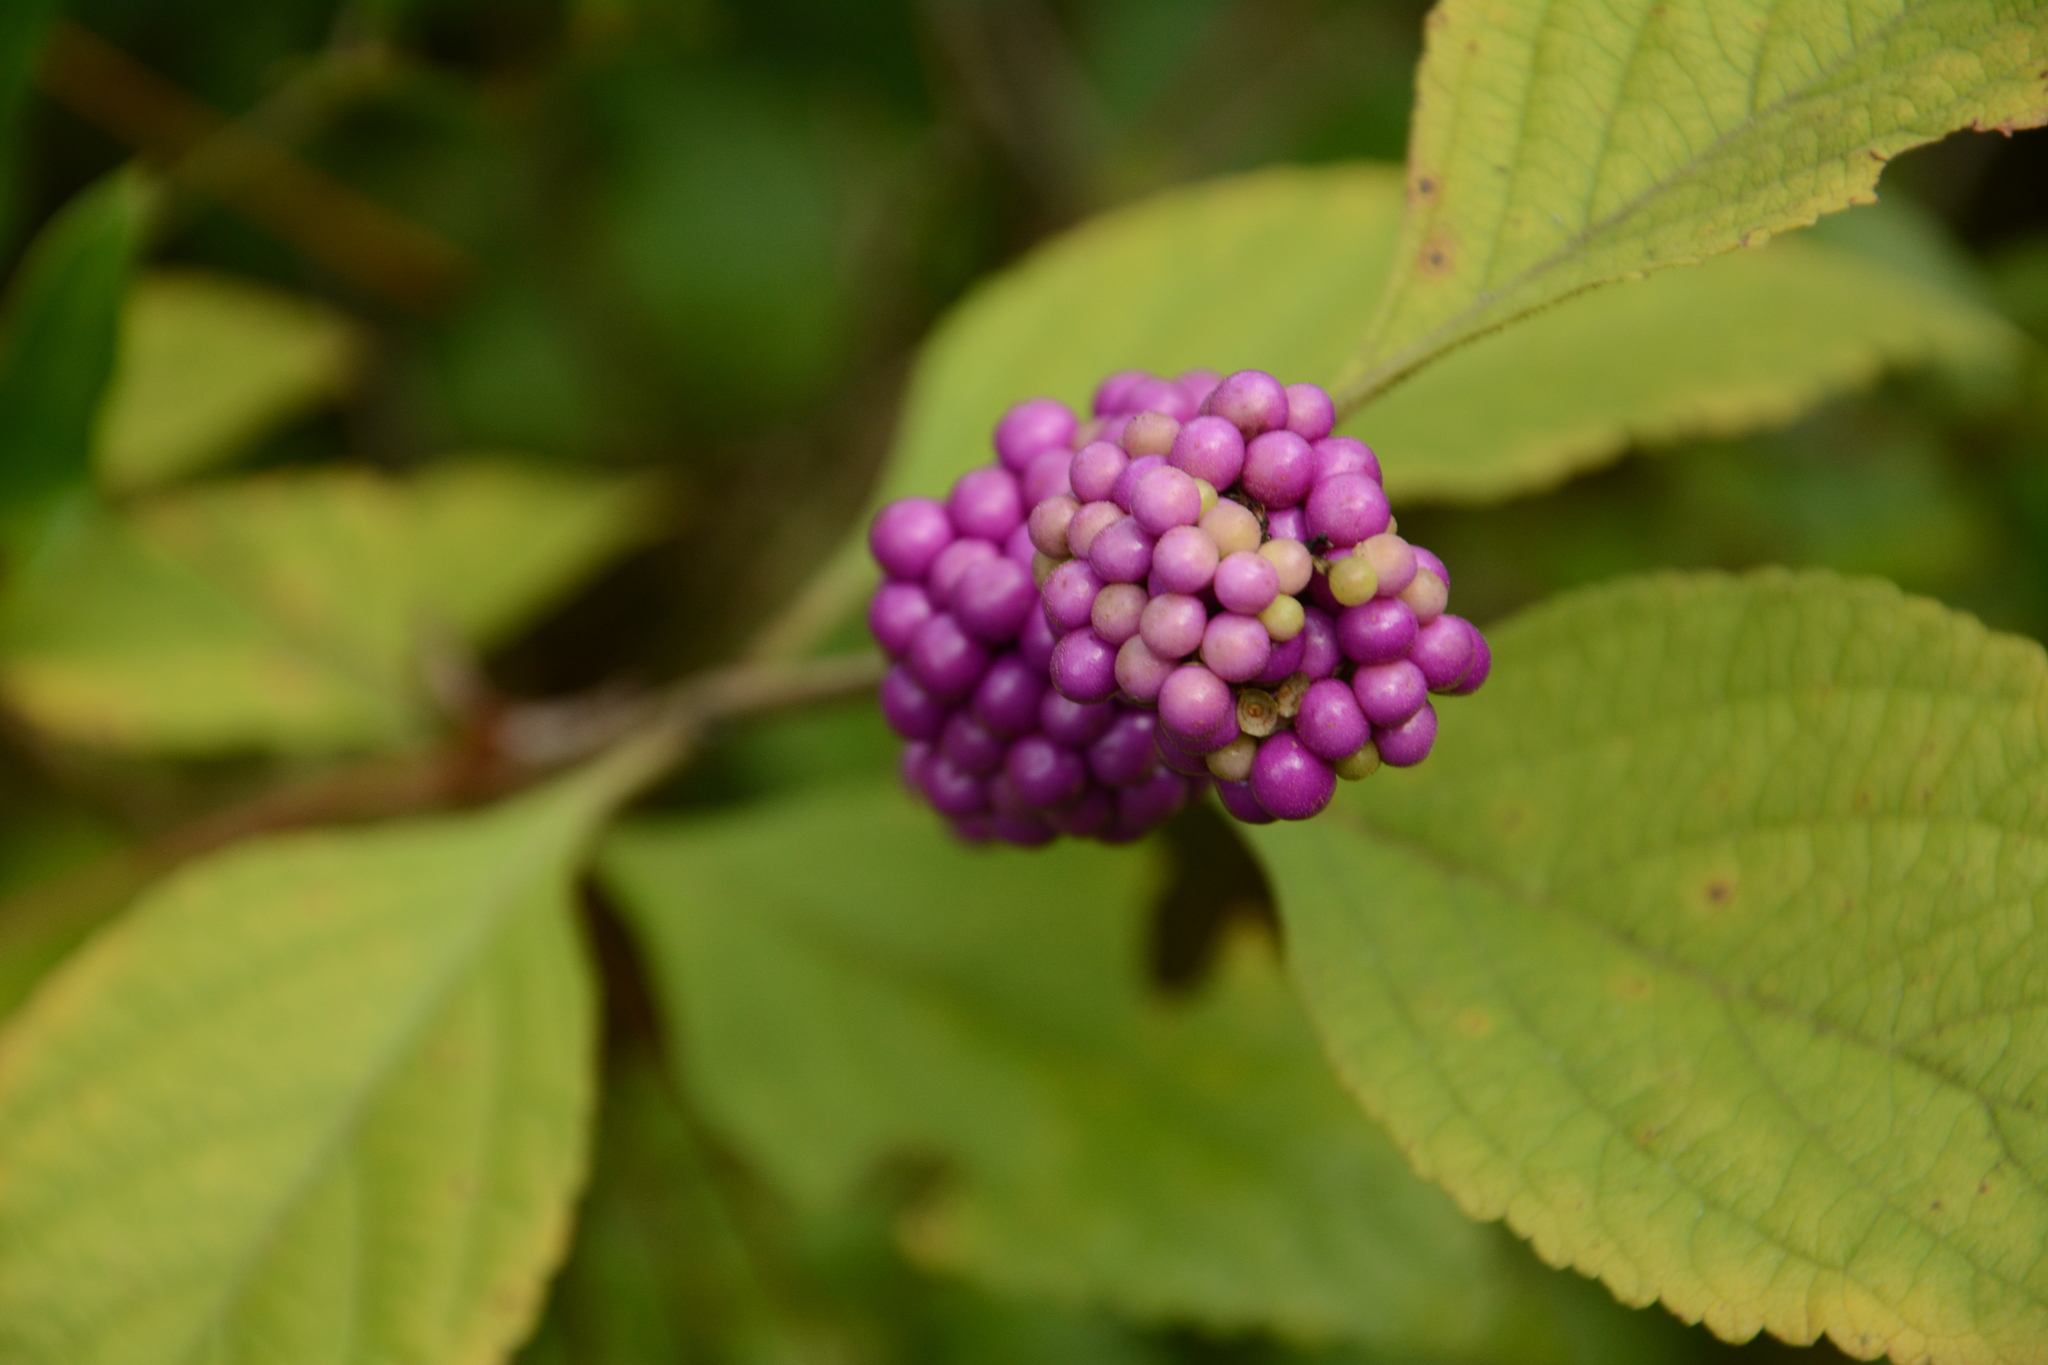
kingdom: Plantae
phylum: Tracheophyta
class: Magnoliopsida
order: Lamiales
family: Lamiaceae
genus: Callicarpa
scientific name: Callicarpa americana
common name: American beautyberry
